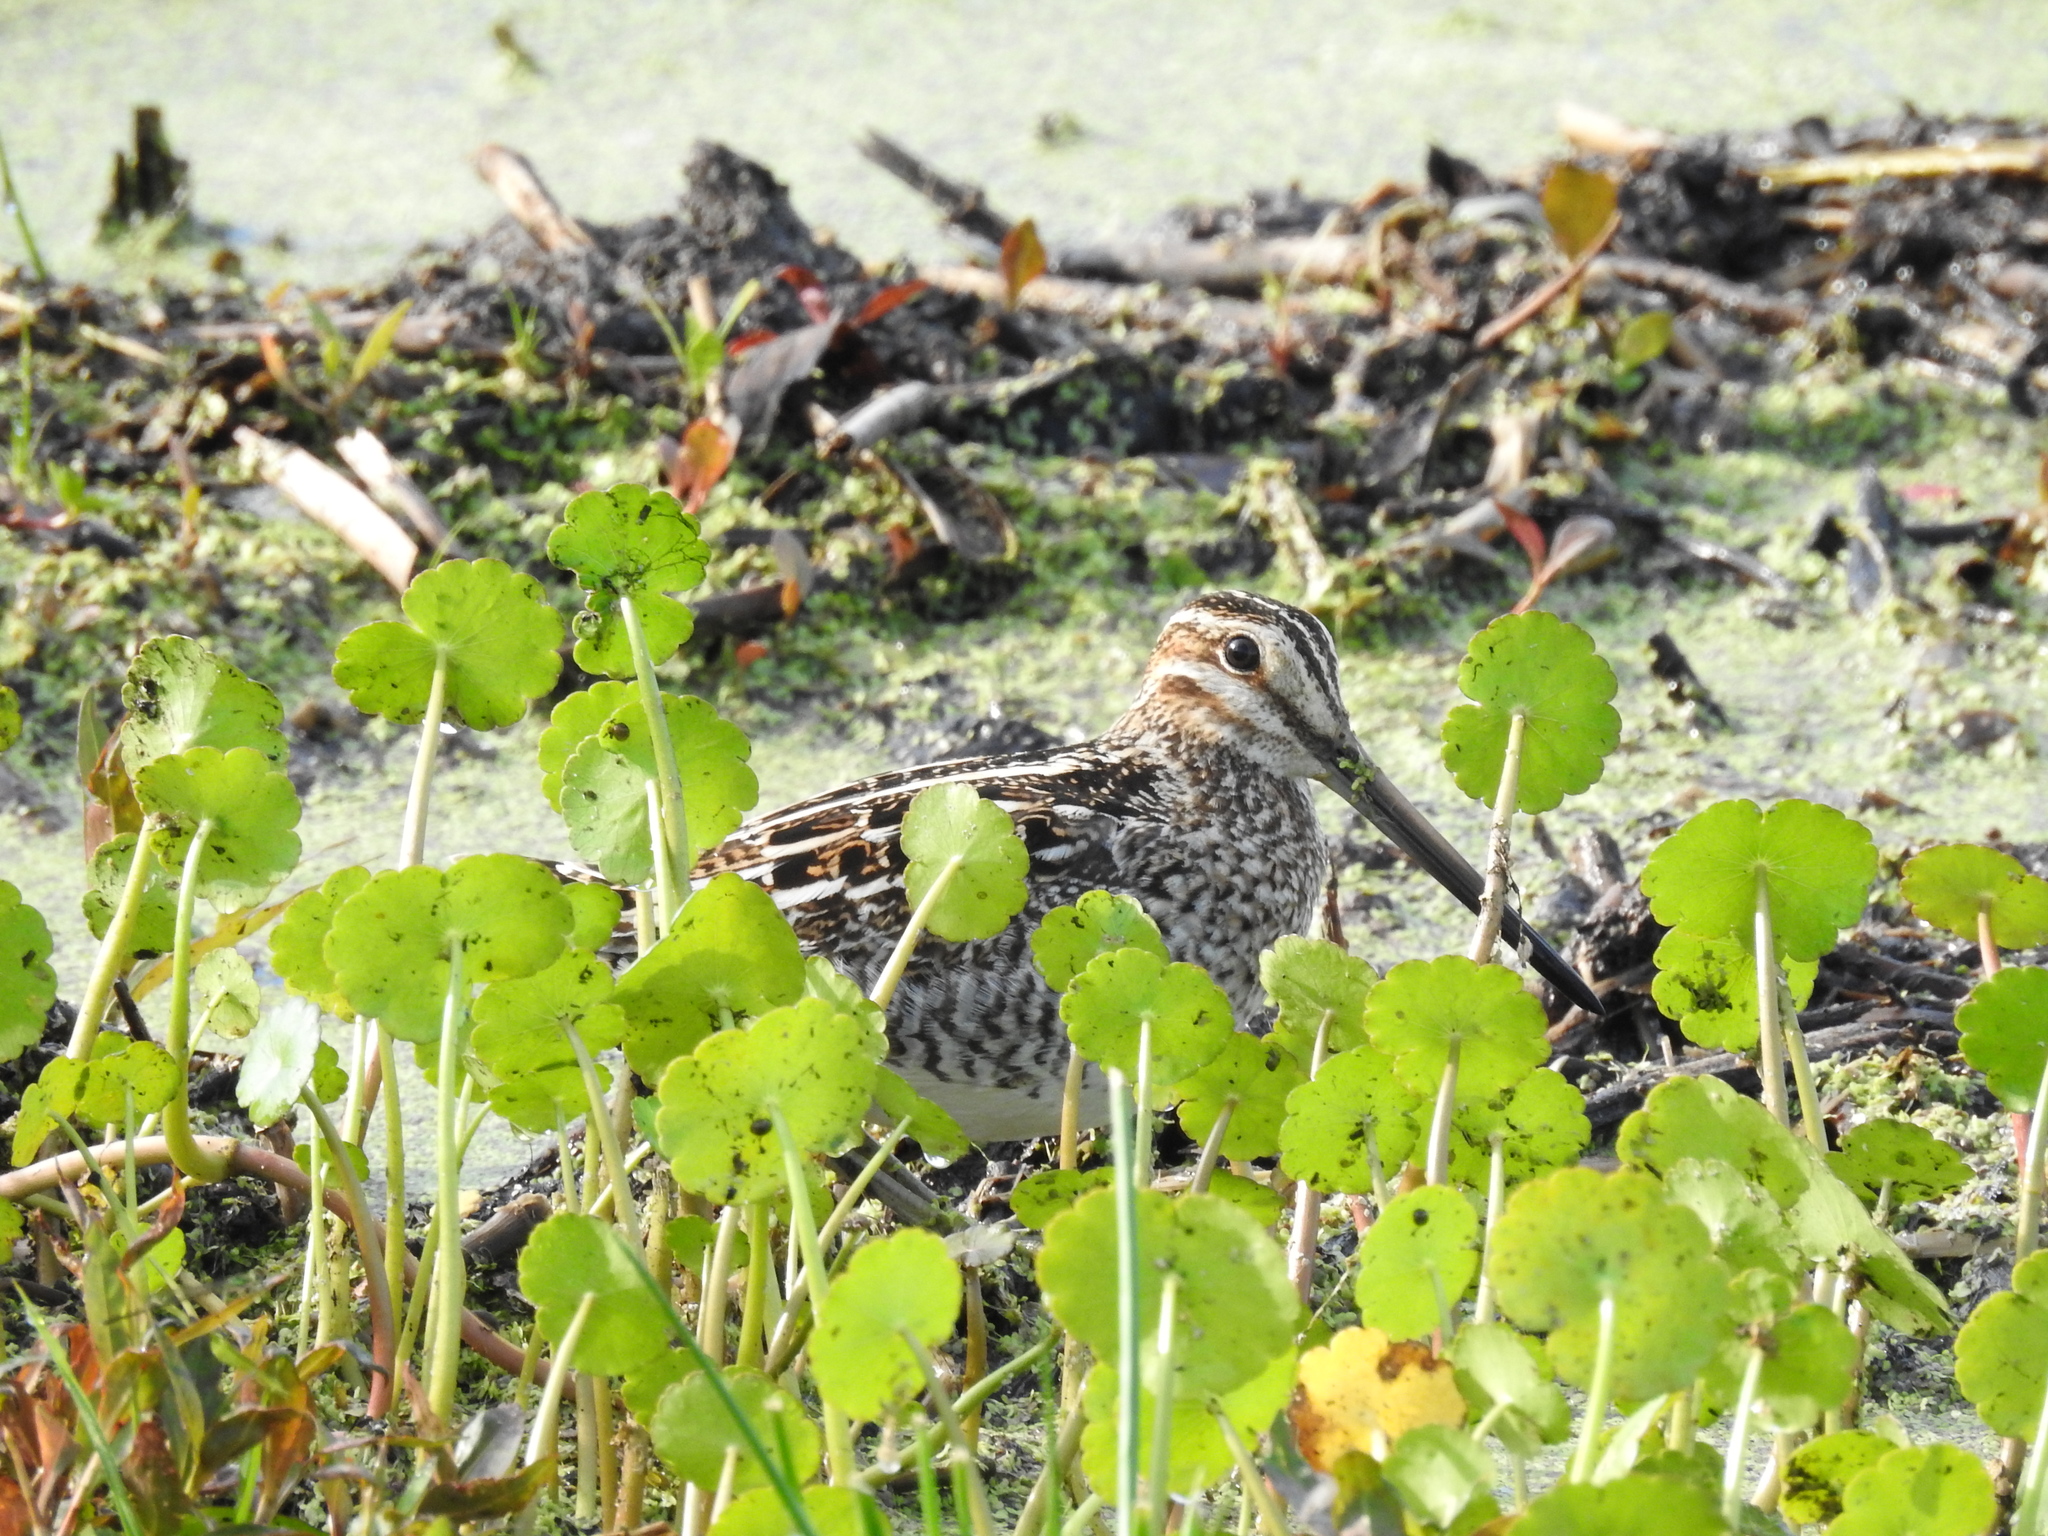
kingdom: Animalia
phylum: Chordata
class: Aves
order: Charadriiformes
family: Scolopacidae
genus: Gallinago
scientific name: Gallinago delicata
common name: Wilson's snipe
